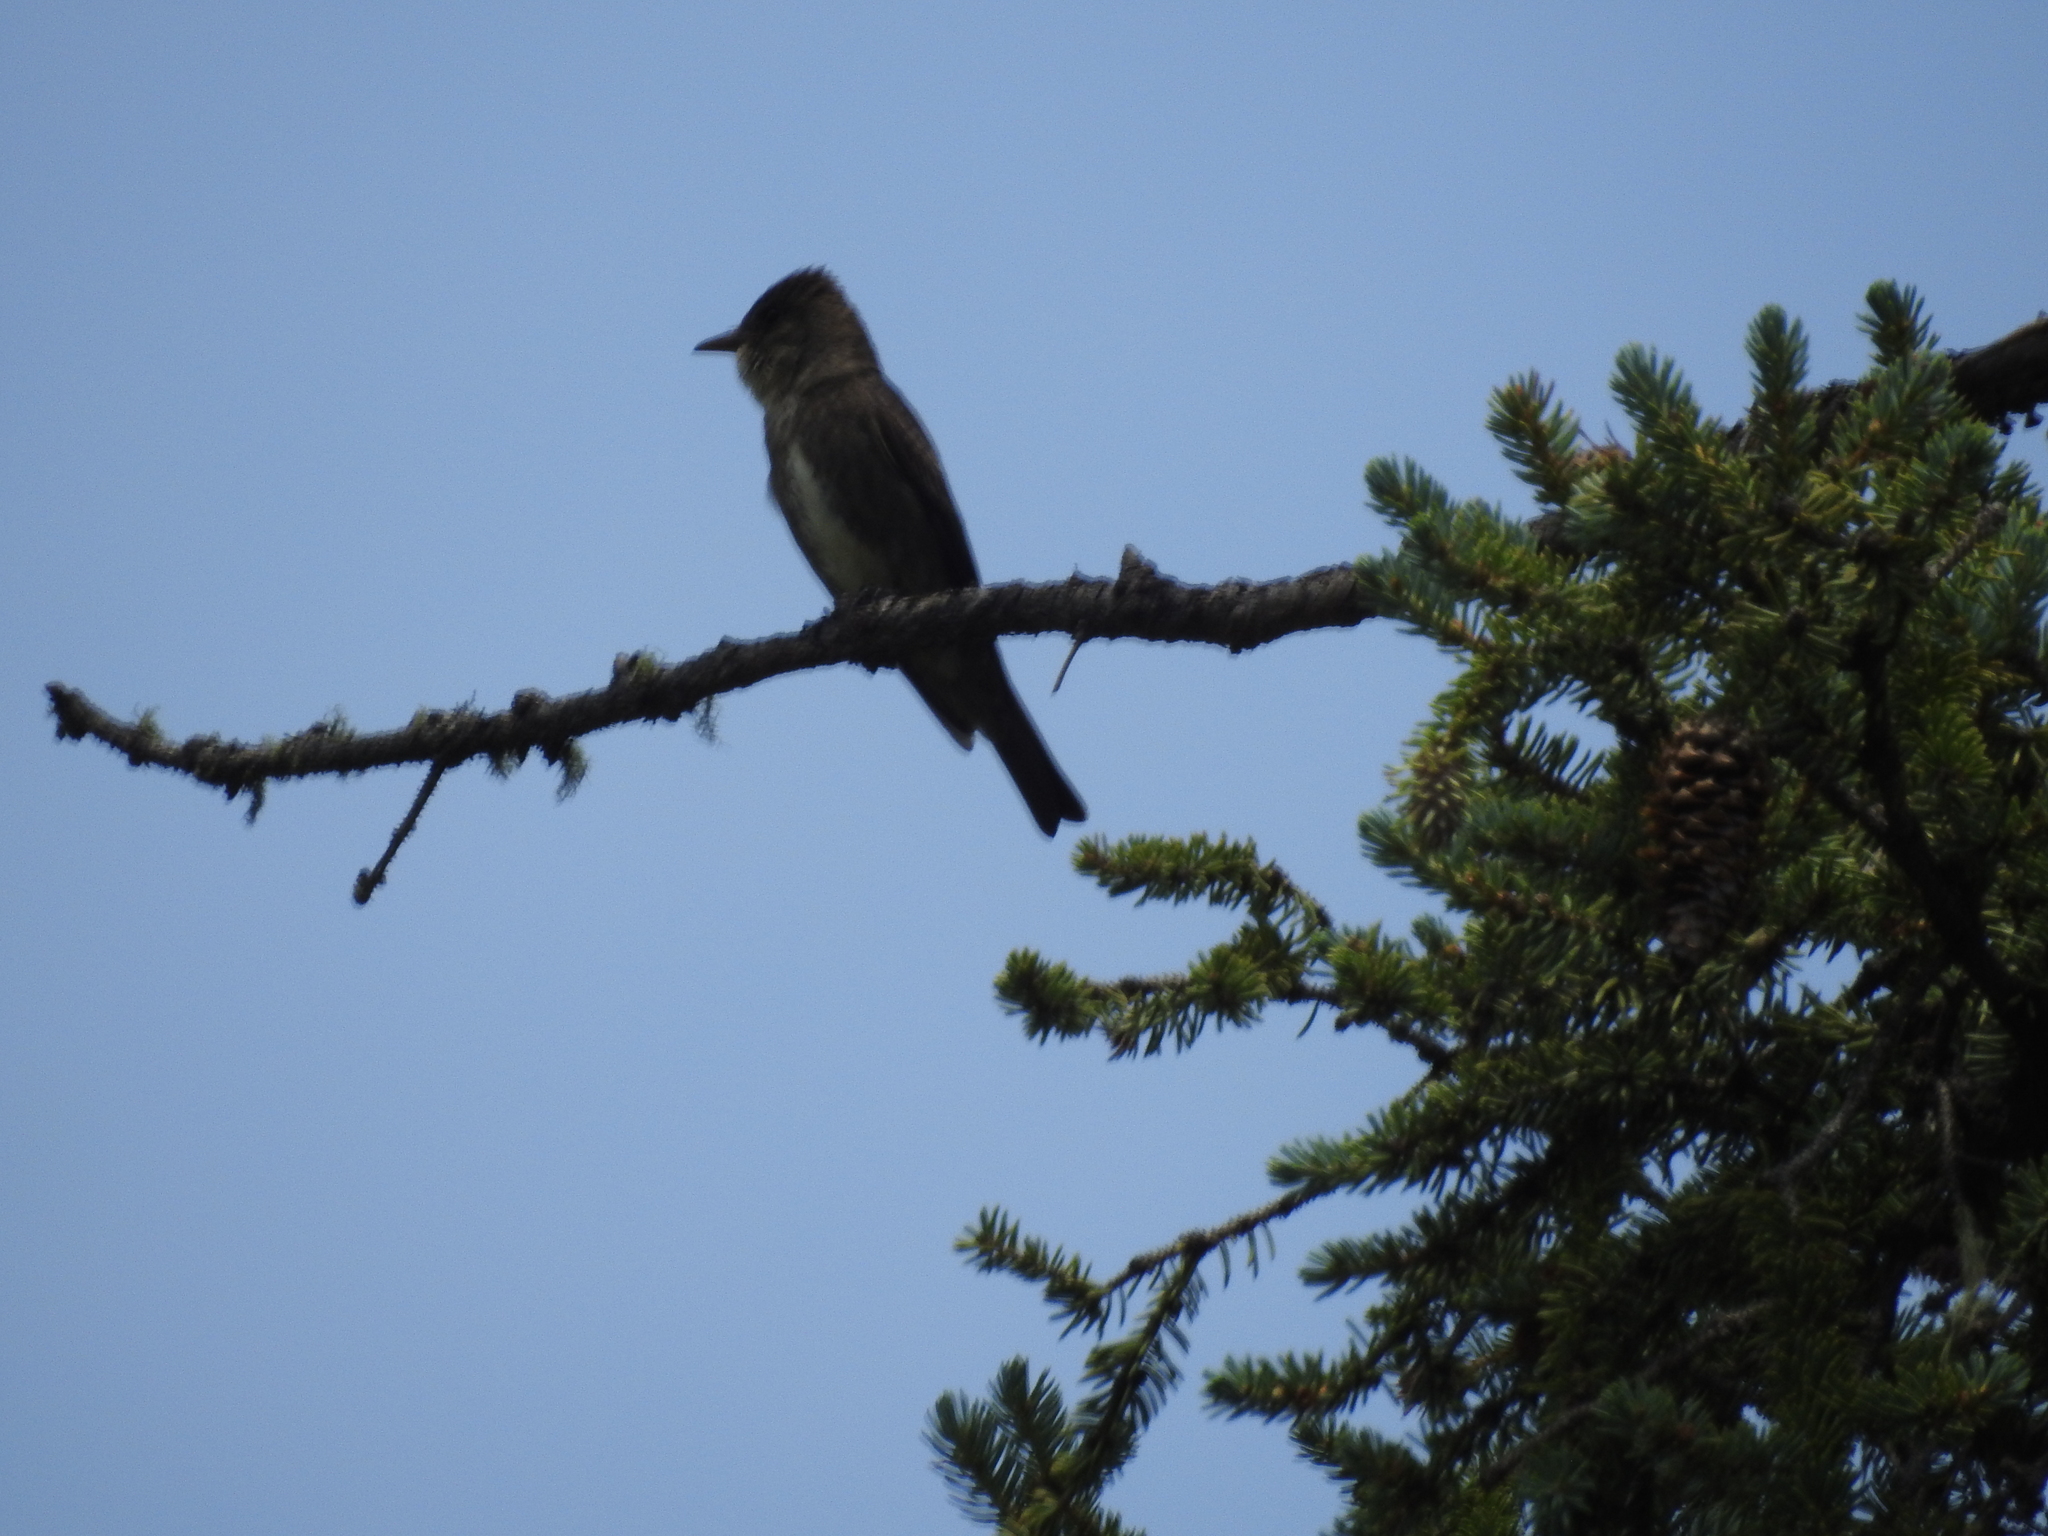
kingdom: Animalia
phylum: Chordata
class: Aves
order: Passeriformes
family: Tyrannidae
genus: Contopus
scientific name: Contopus cooperi
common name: Olive-sided flycatcher
